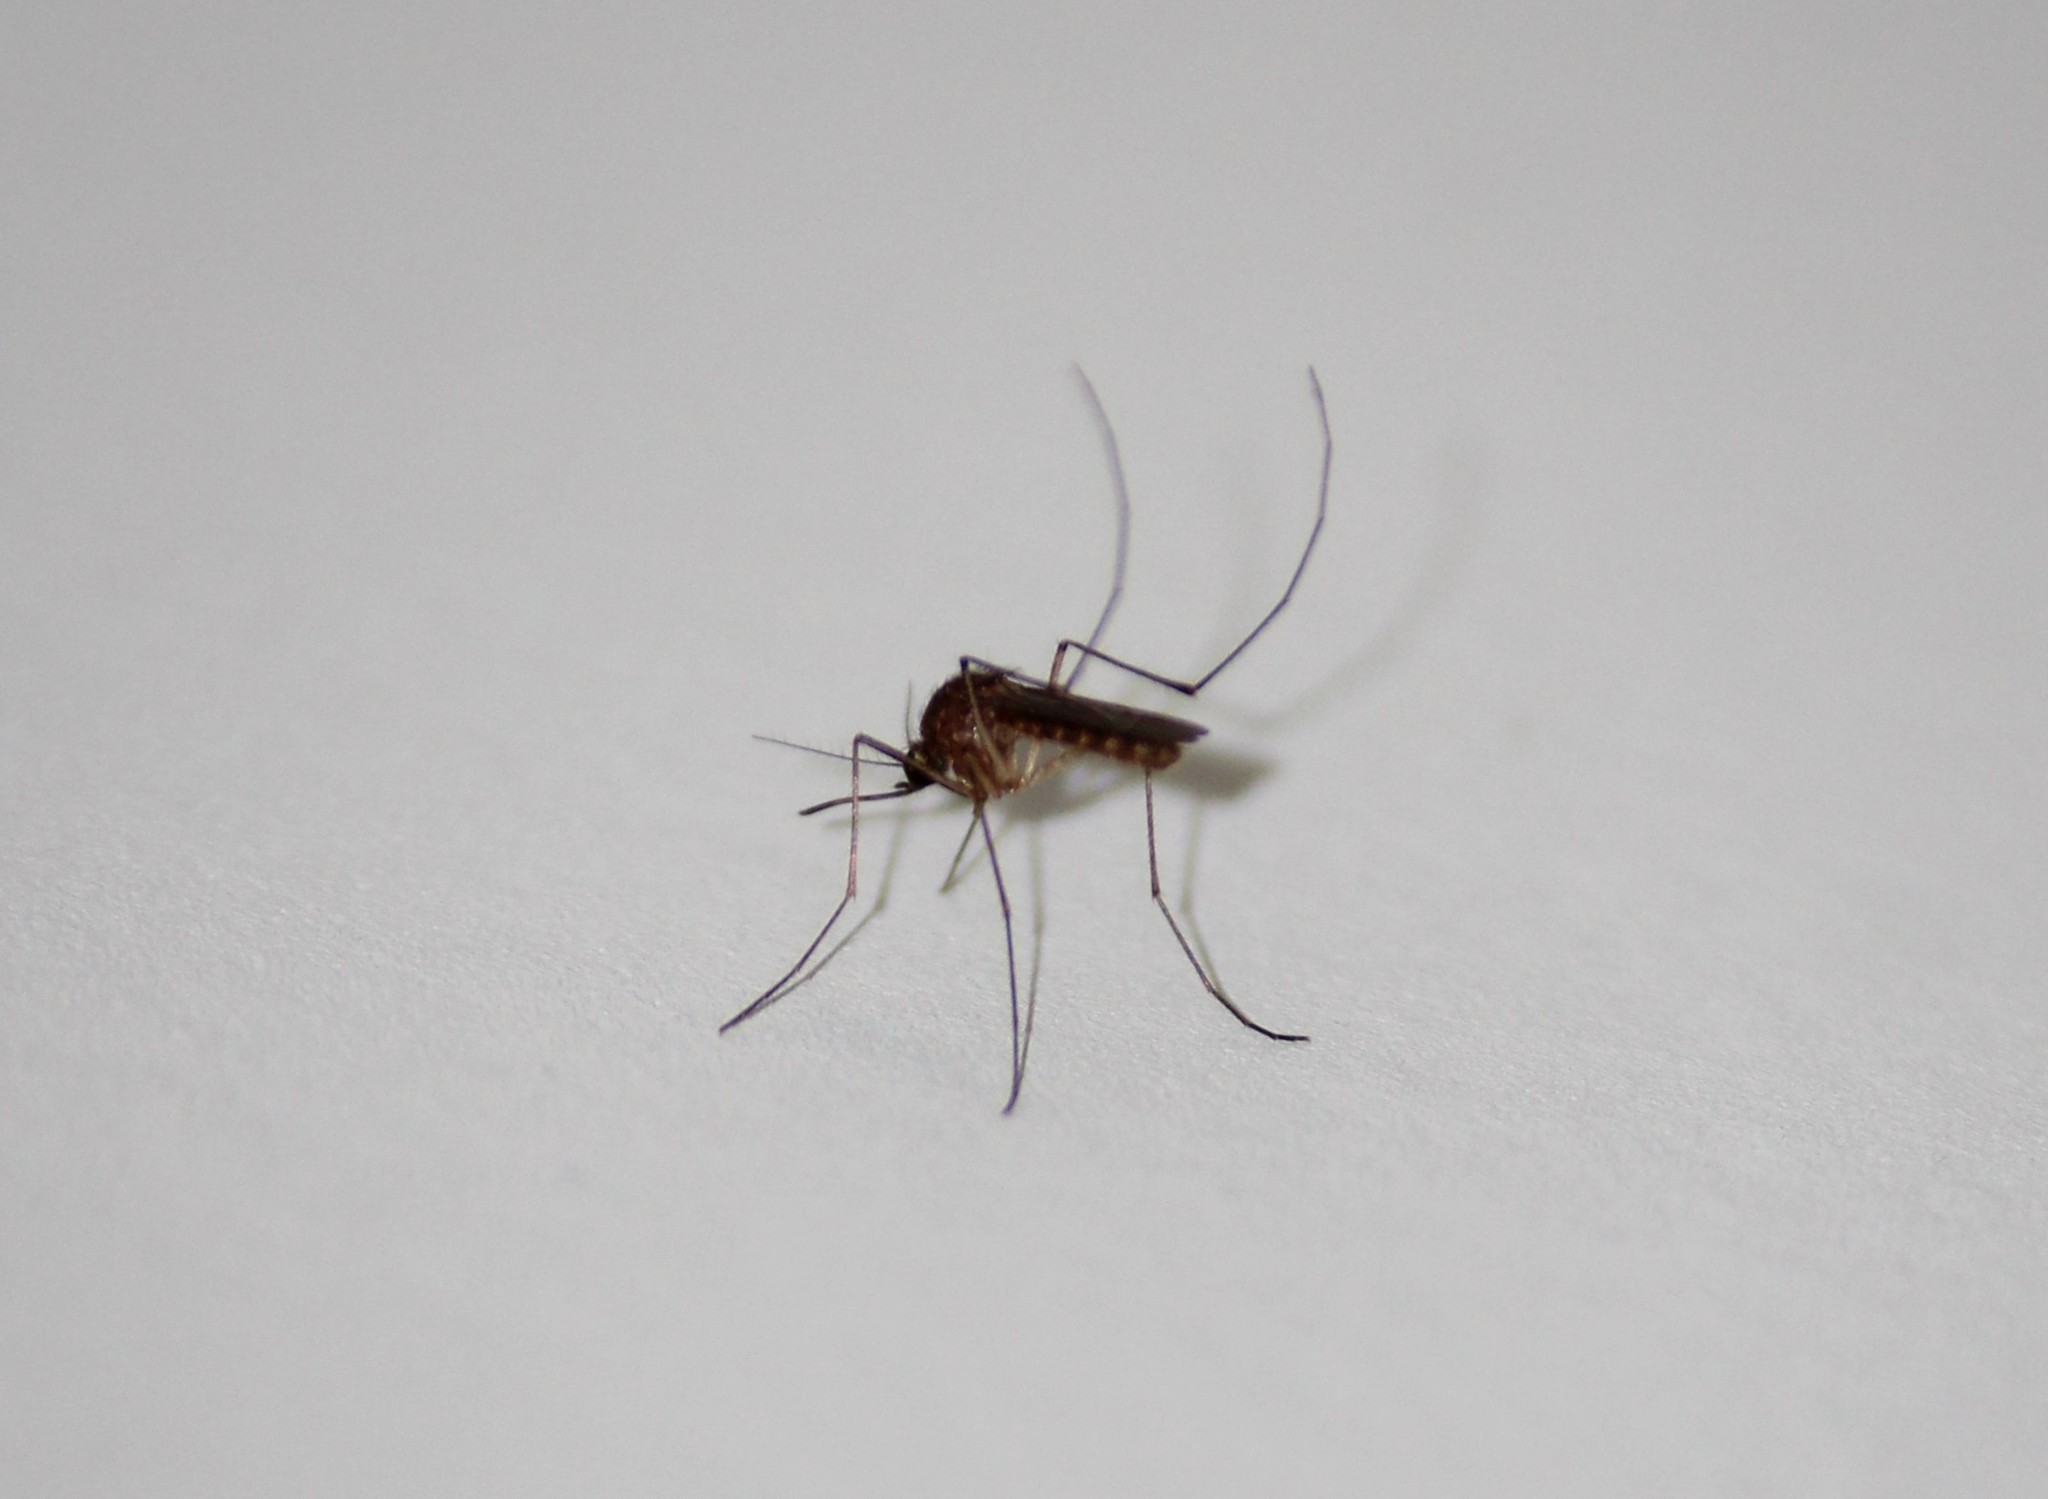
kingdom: Animalia
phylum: Arthropoda
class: Insecta
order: Diptera
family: Culicidae
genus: Culex
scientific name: Culex erraticus
